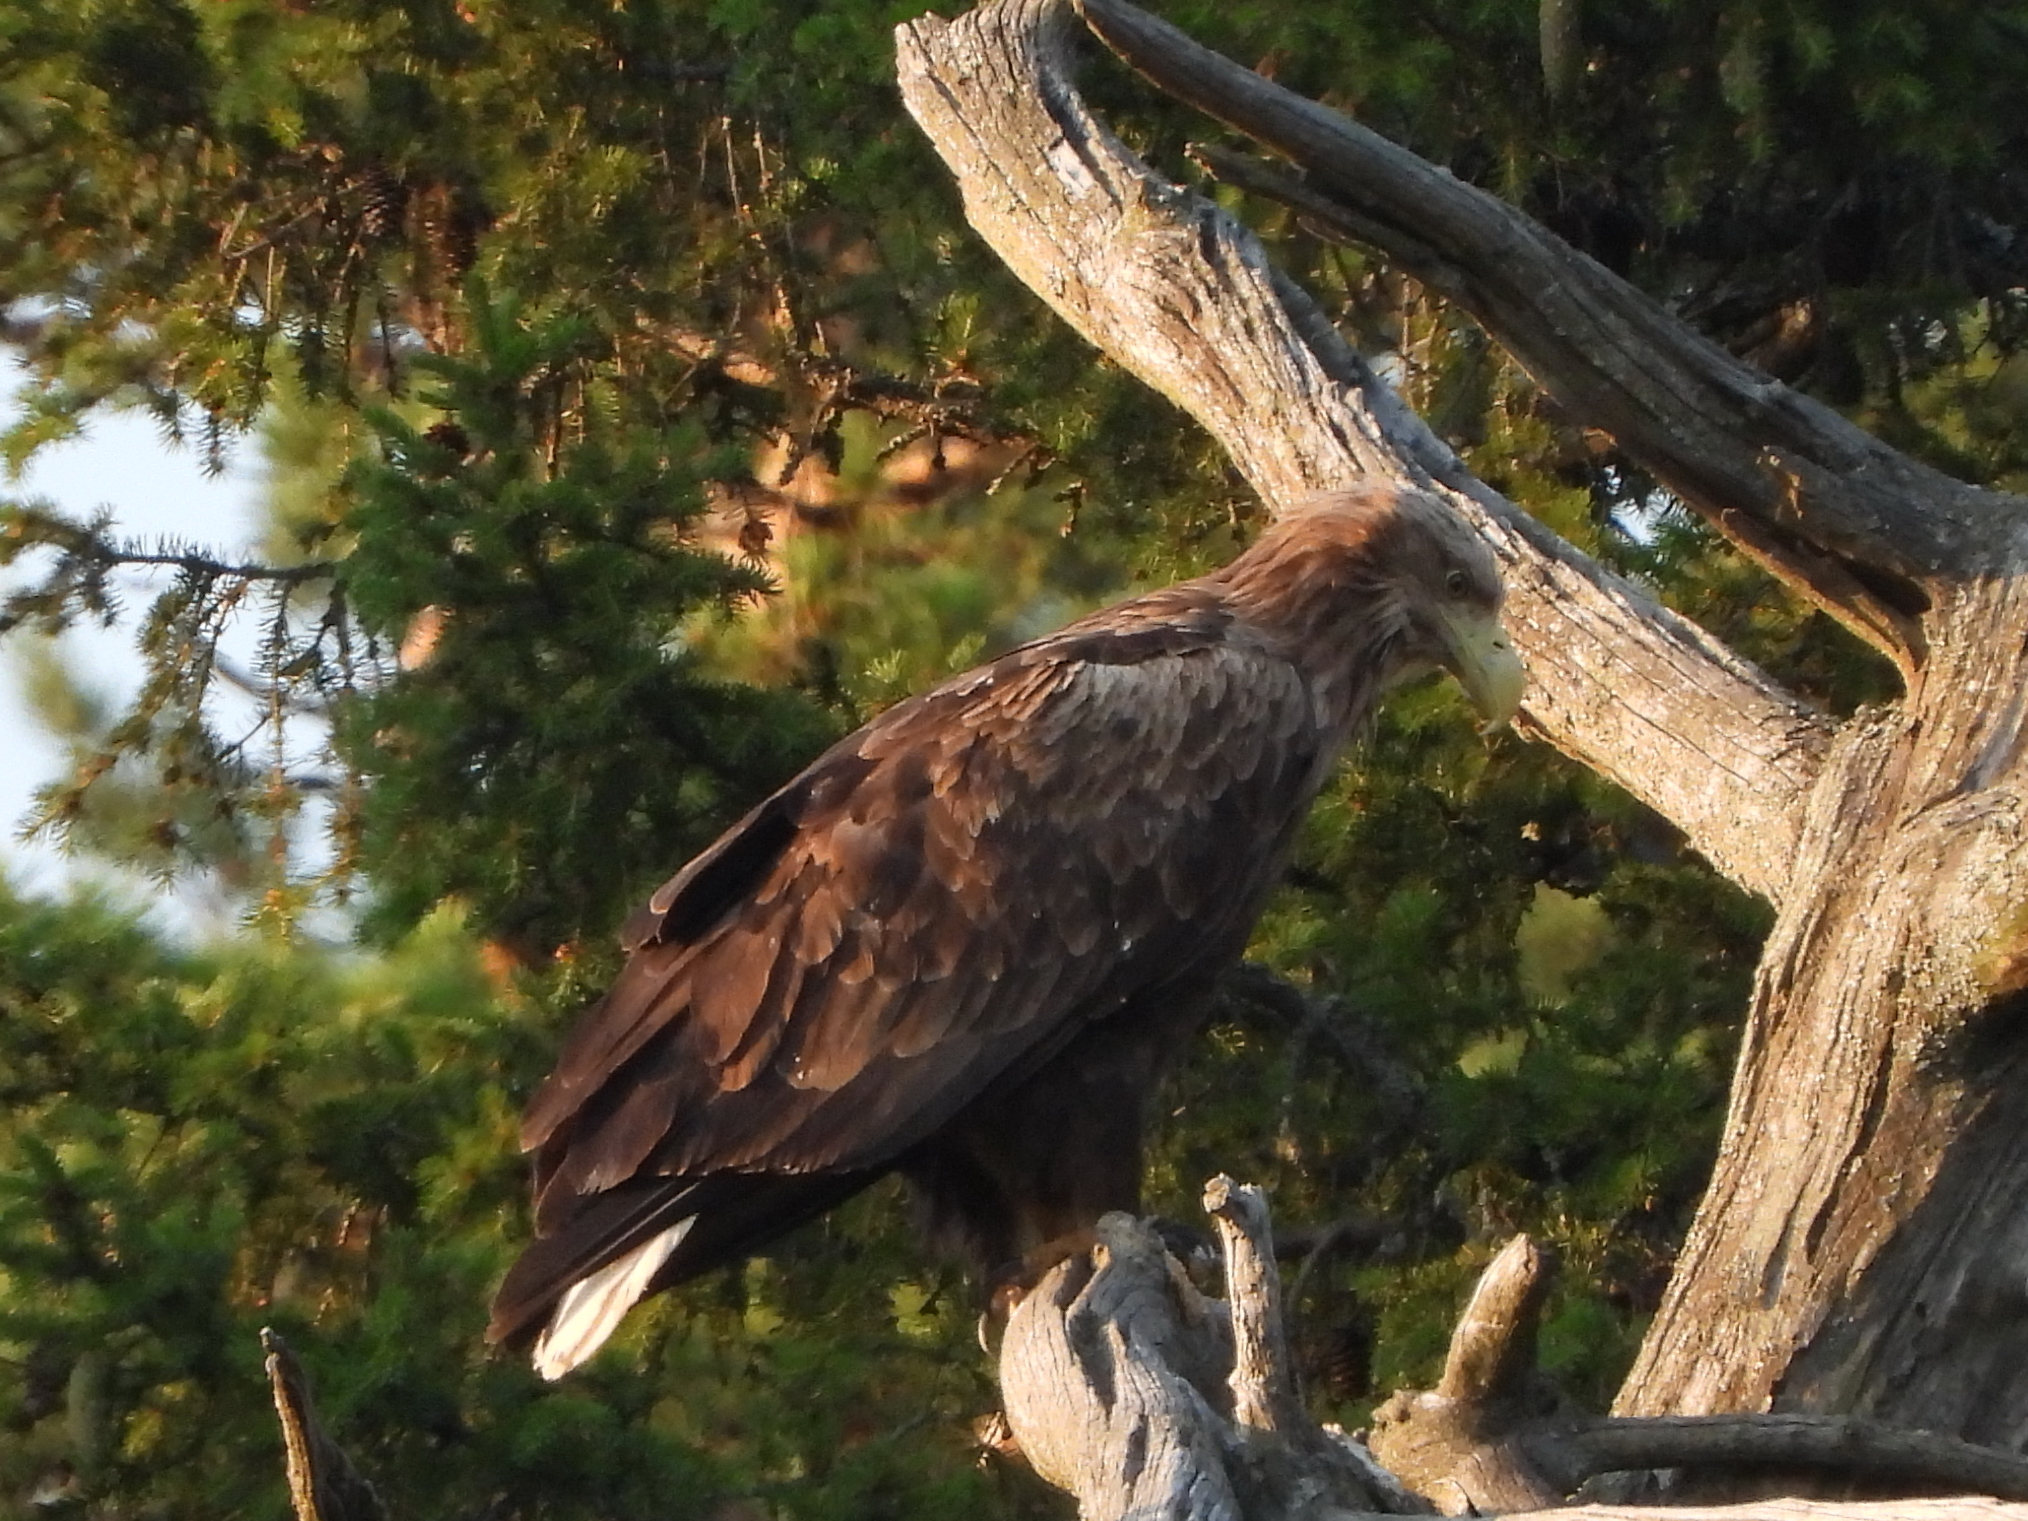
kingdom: Animalia
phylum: Chordata
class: Aves
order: Accipitriformes
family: Accipitridae
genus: Haliaeetus
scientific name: Haliaeetus albicilla
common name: White-tailed eagle
